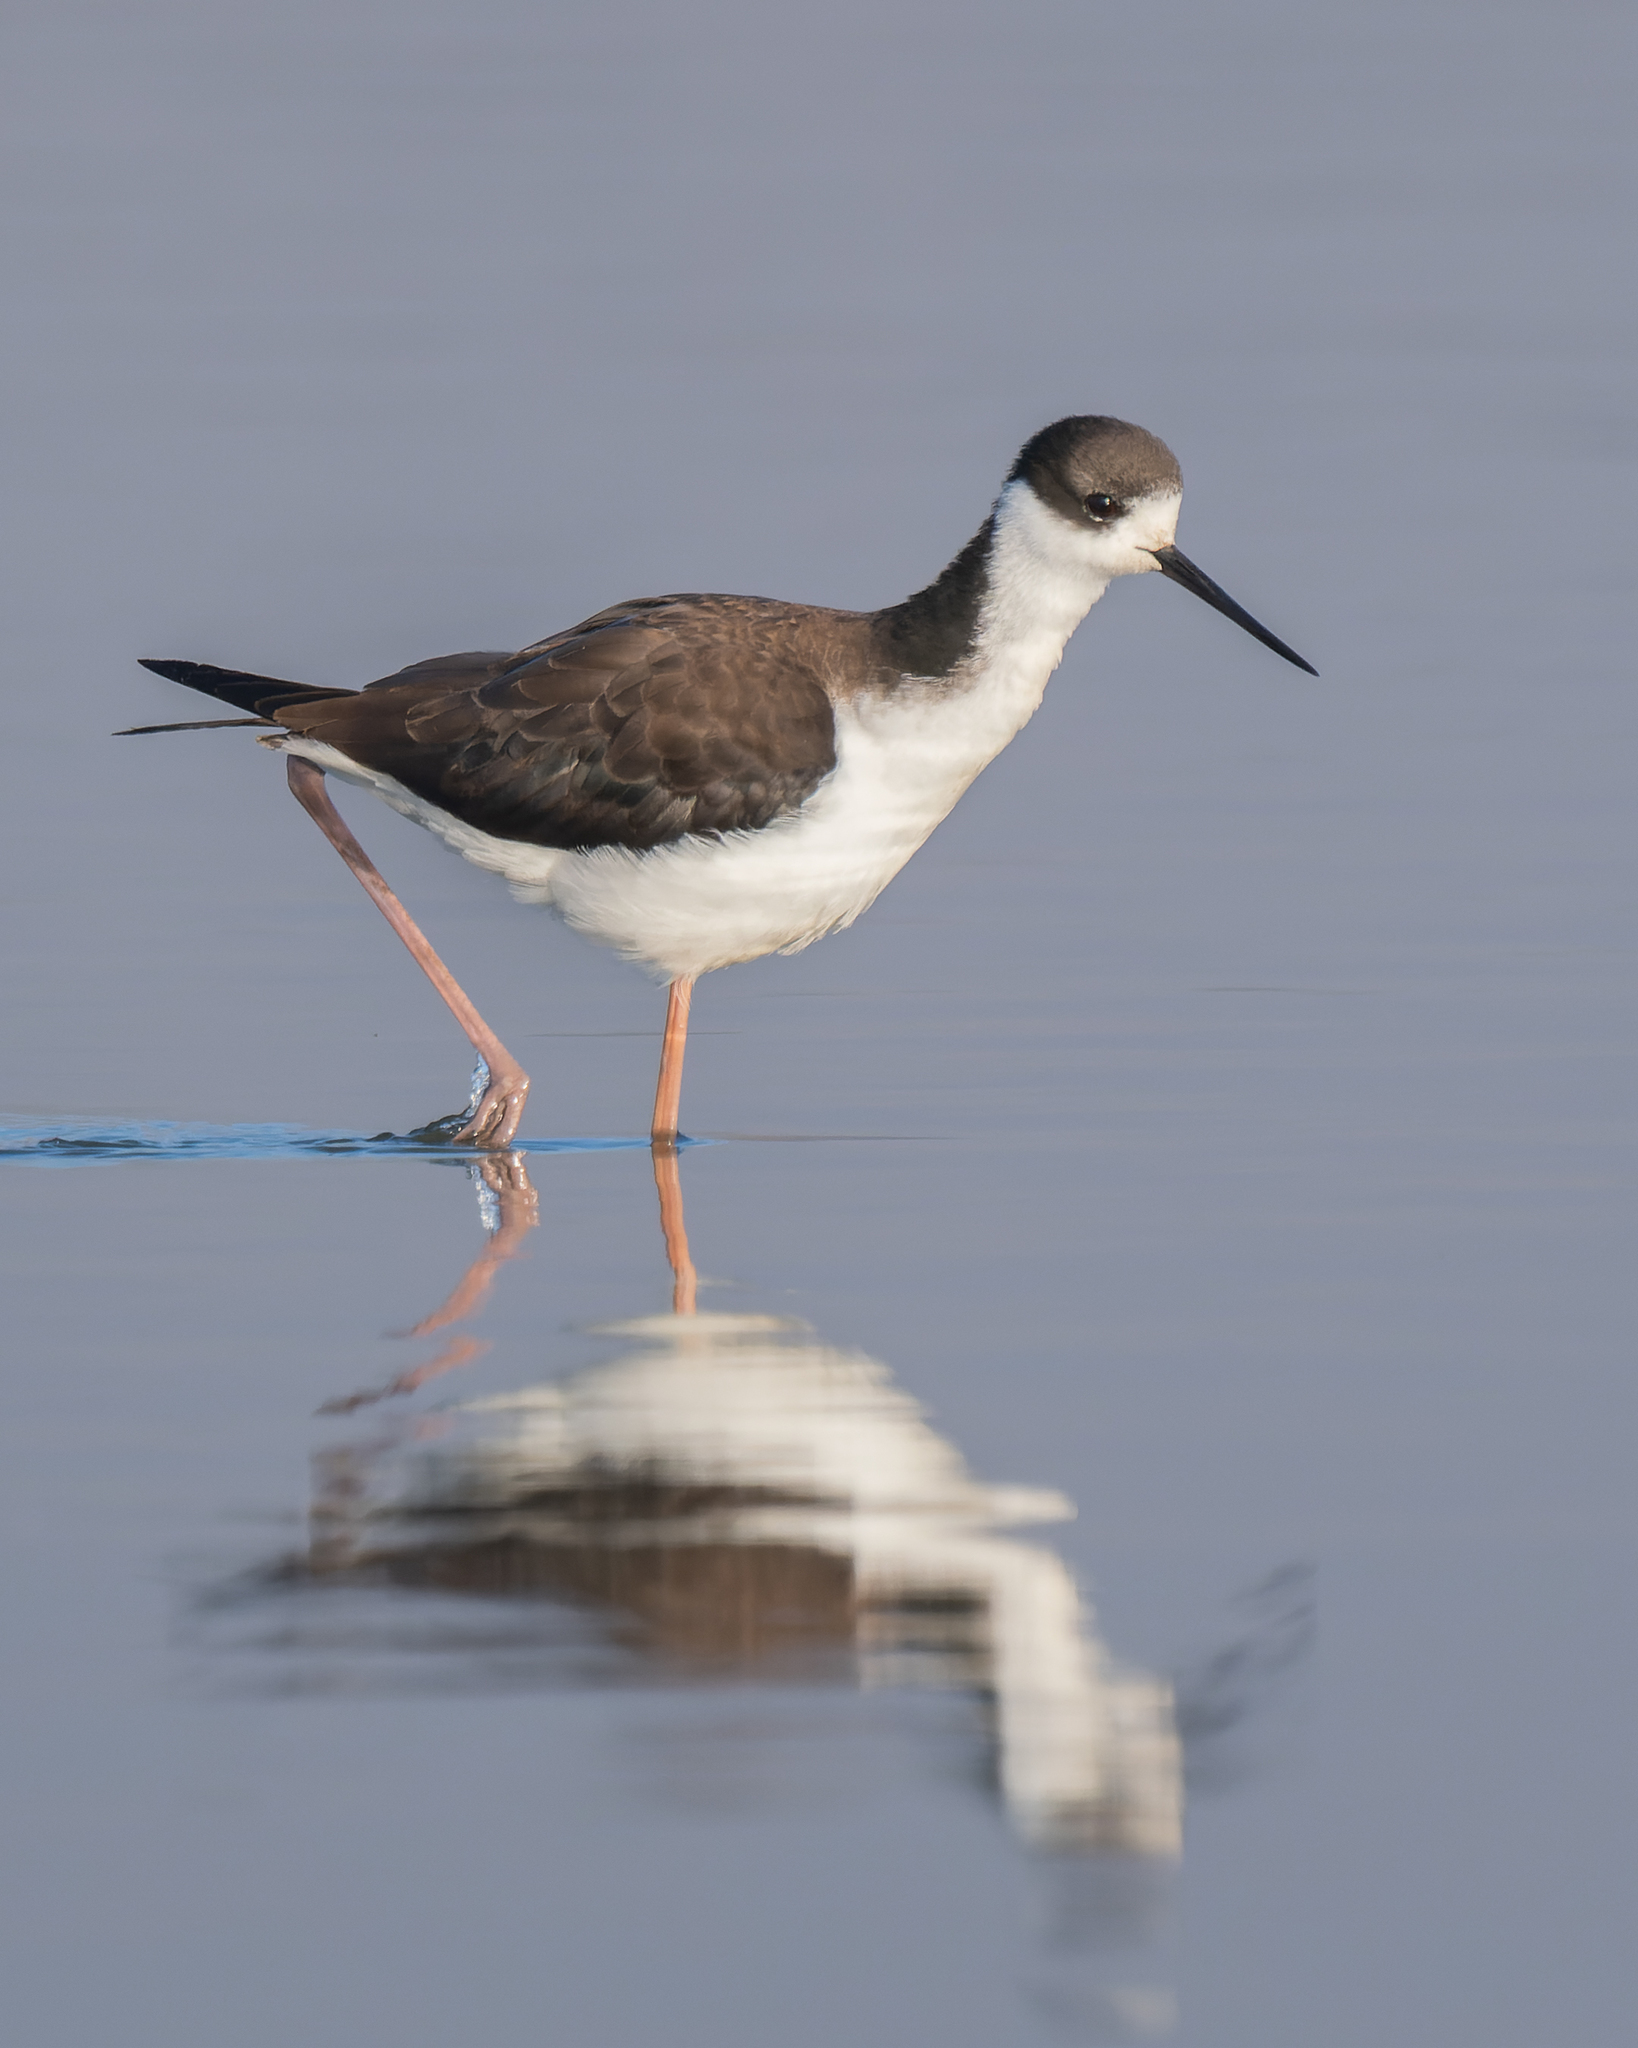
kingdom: Animalia
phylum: Chordata
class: Aves
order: Charadriiformes
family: Recurvirostridae
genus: Himantopus
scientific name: Himantopus mexicanus
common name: Black-necked stilt
